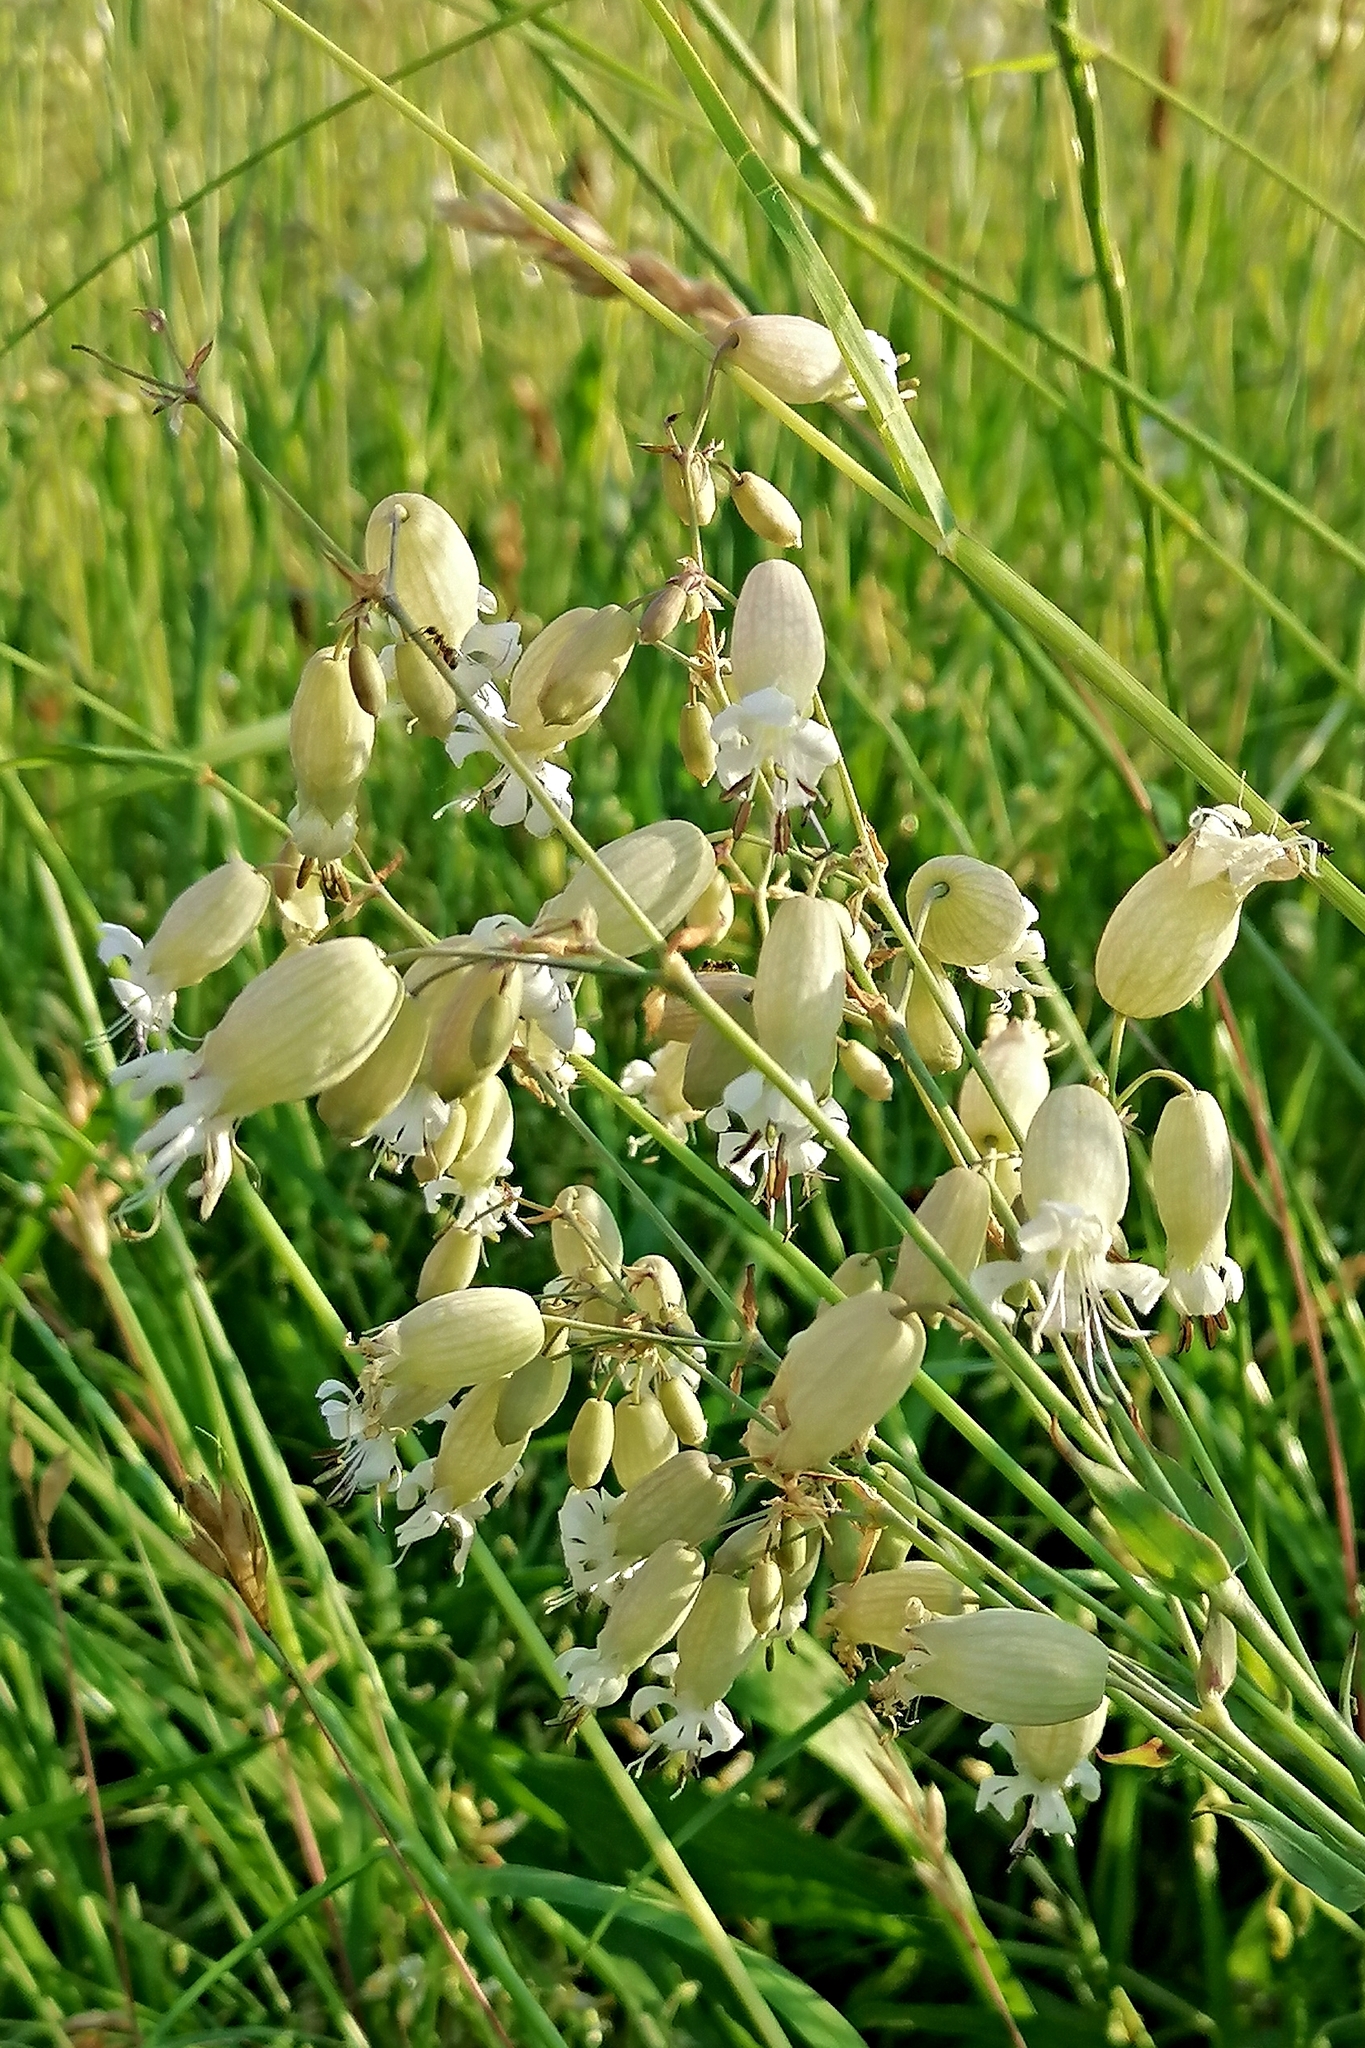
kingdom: Plantae
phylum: Tracheophyta
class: Magnoliopsida
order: Caryophyllales
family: Caryophyllaceae
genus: Silene
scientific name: Silene vulgaris
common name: Bladder campion
